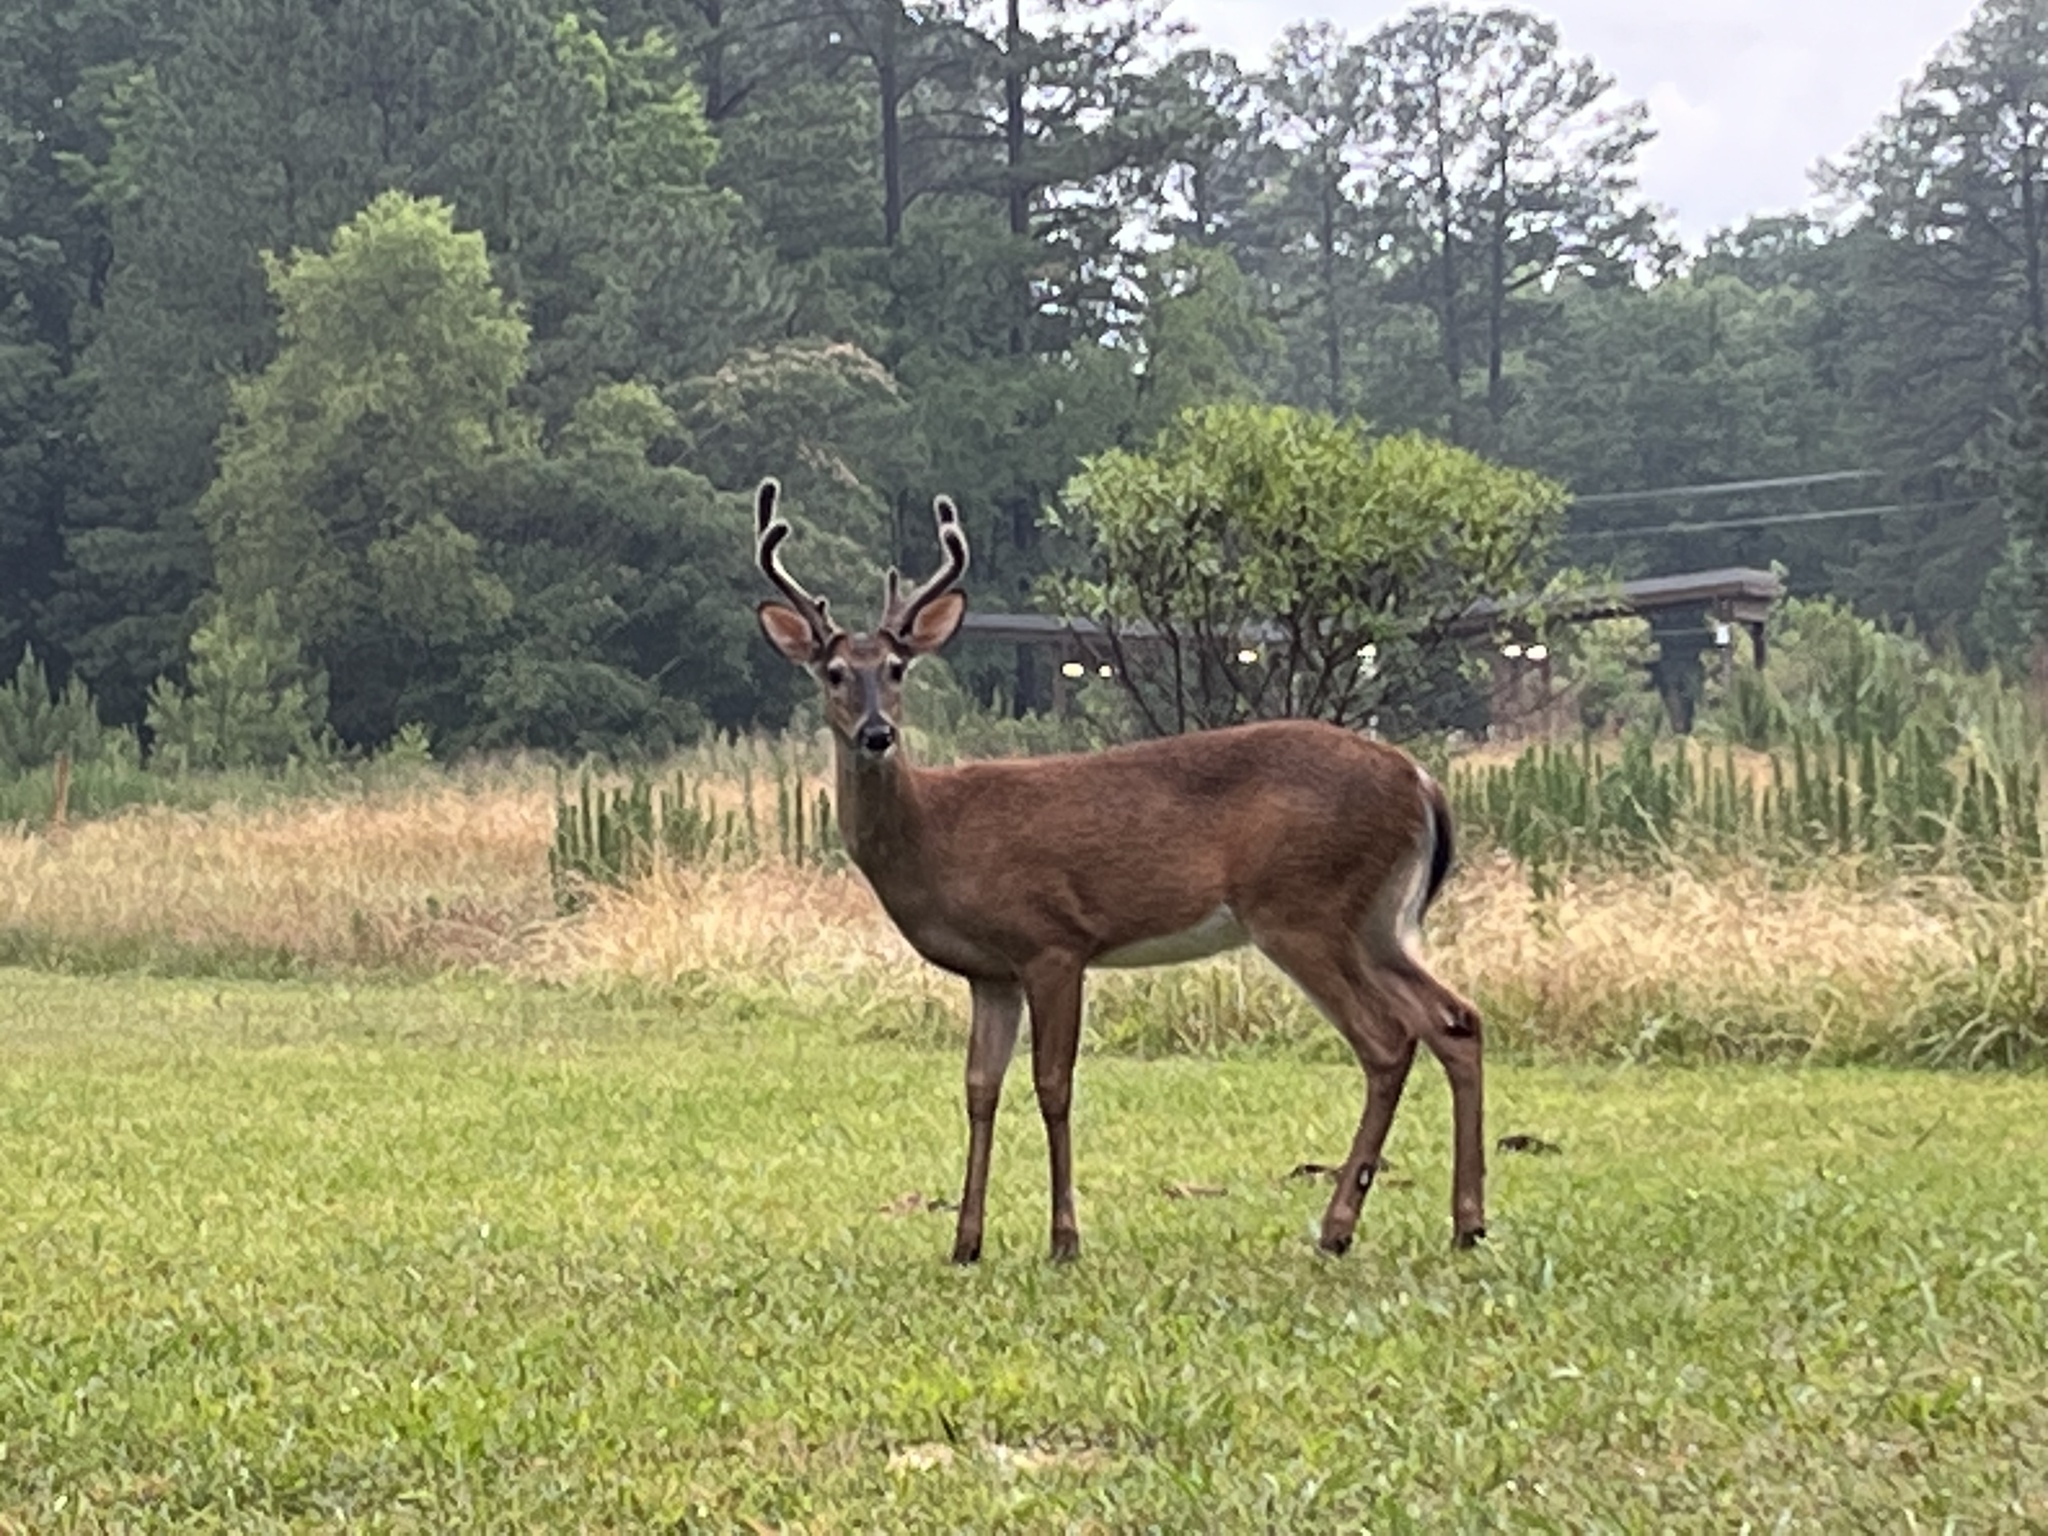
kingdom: Animalia
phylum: Chordata
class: Mammalia
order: Artiodactyla
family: Cervidae
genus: Odocoileus
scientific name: Odocoileus virginianus
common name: White-tailed deer
